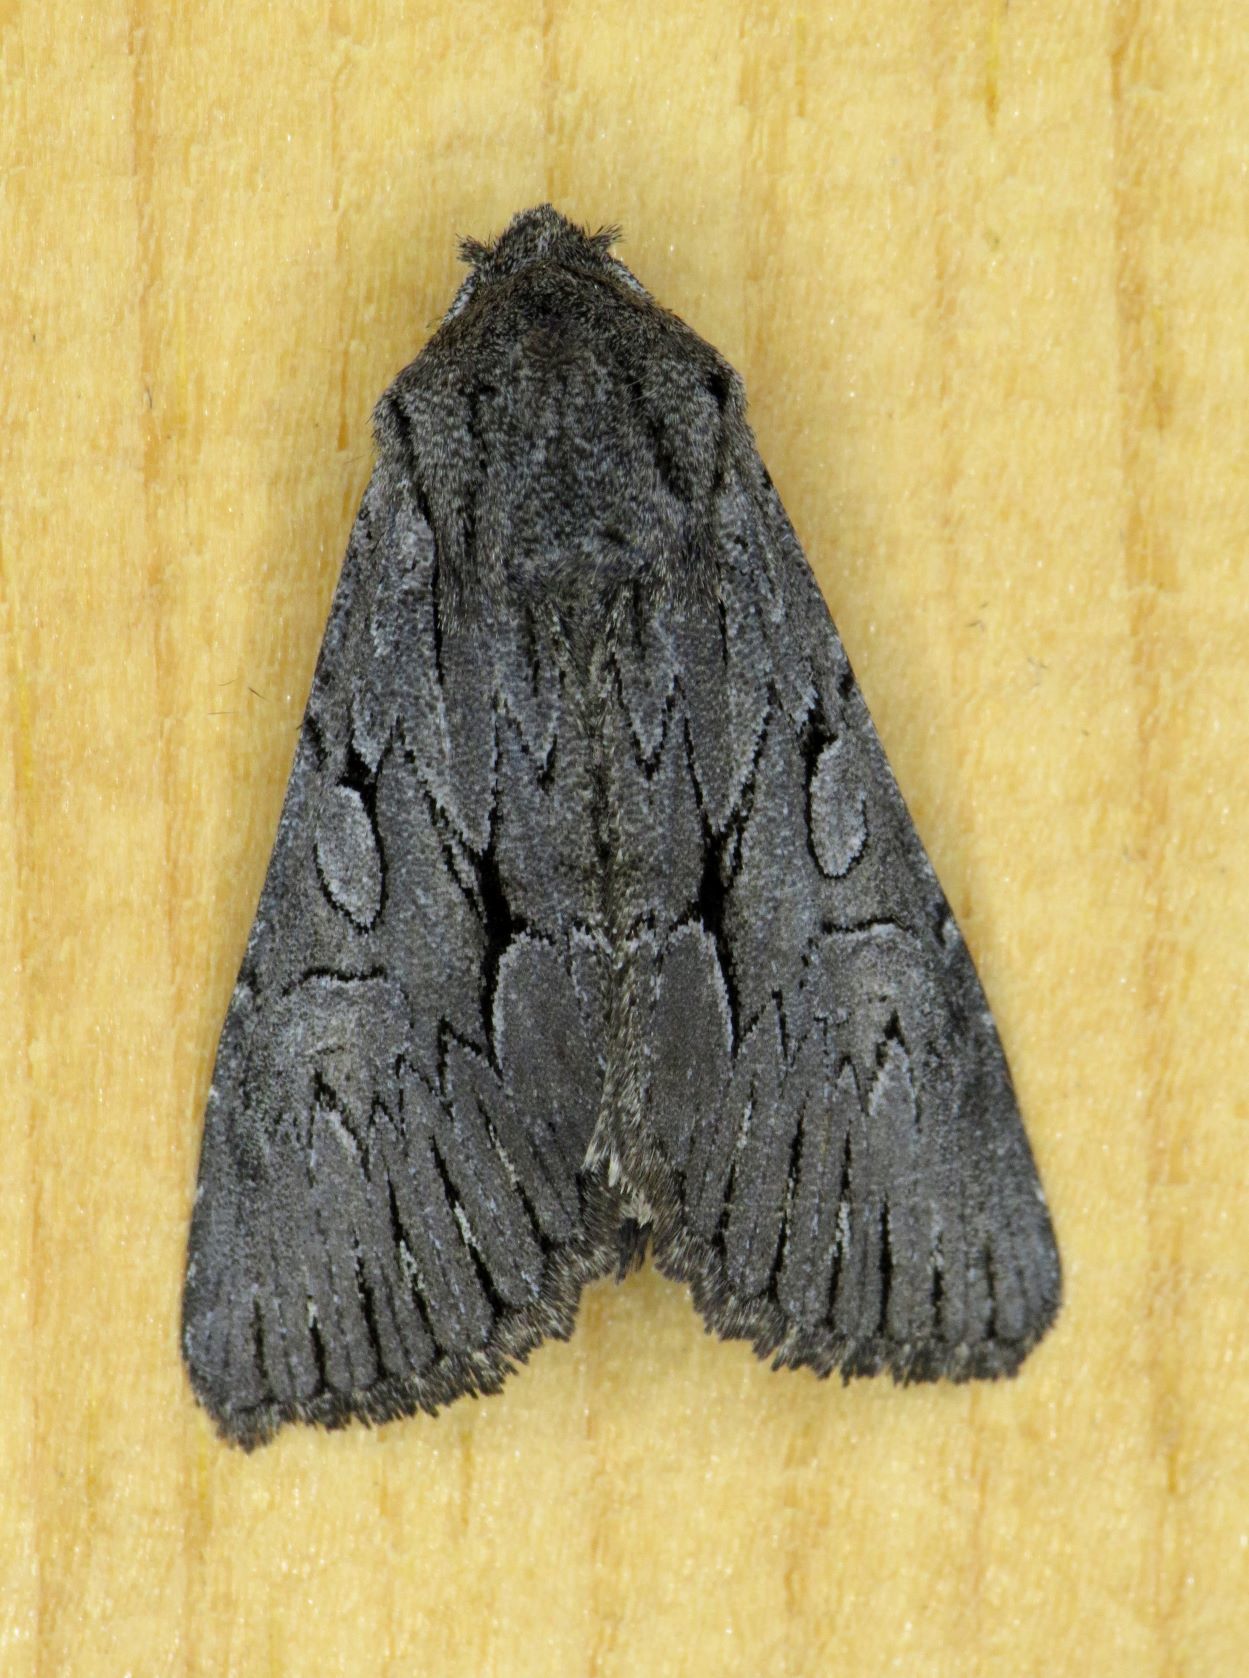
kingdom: Animalia
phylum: Arthropoda
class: Insecta
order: Lepidoptera
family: Noctuidae
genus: Fishia
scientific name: Fishia yosemitae
